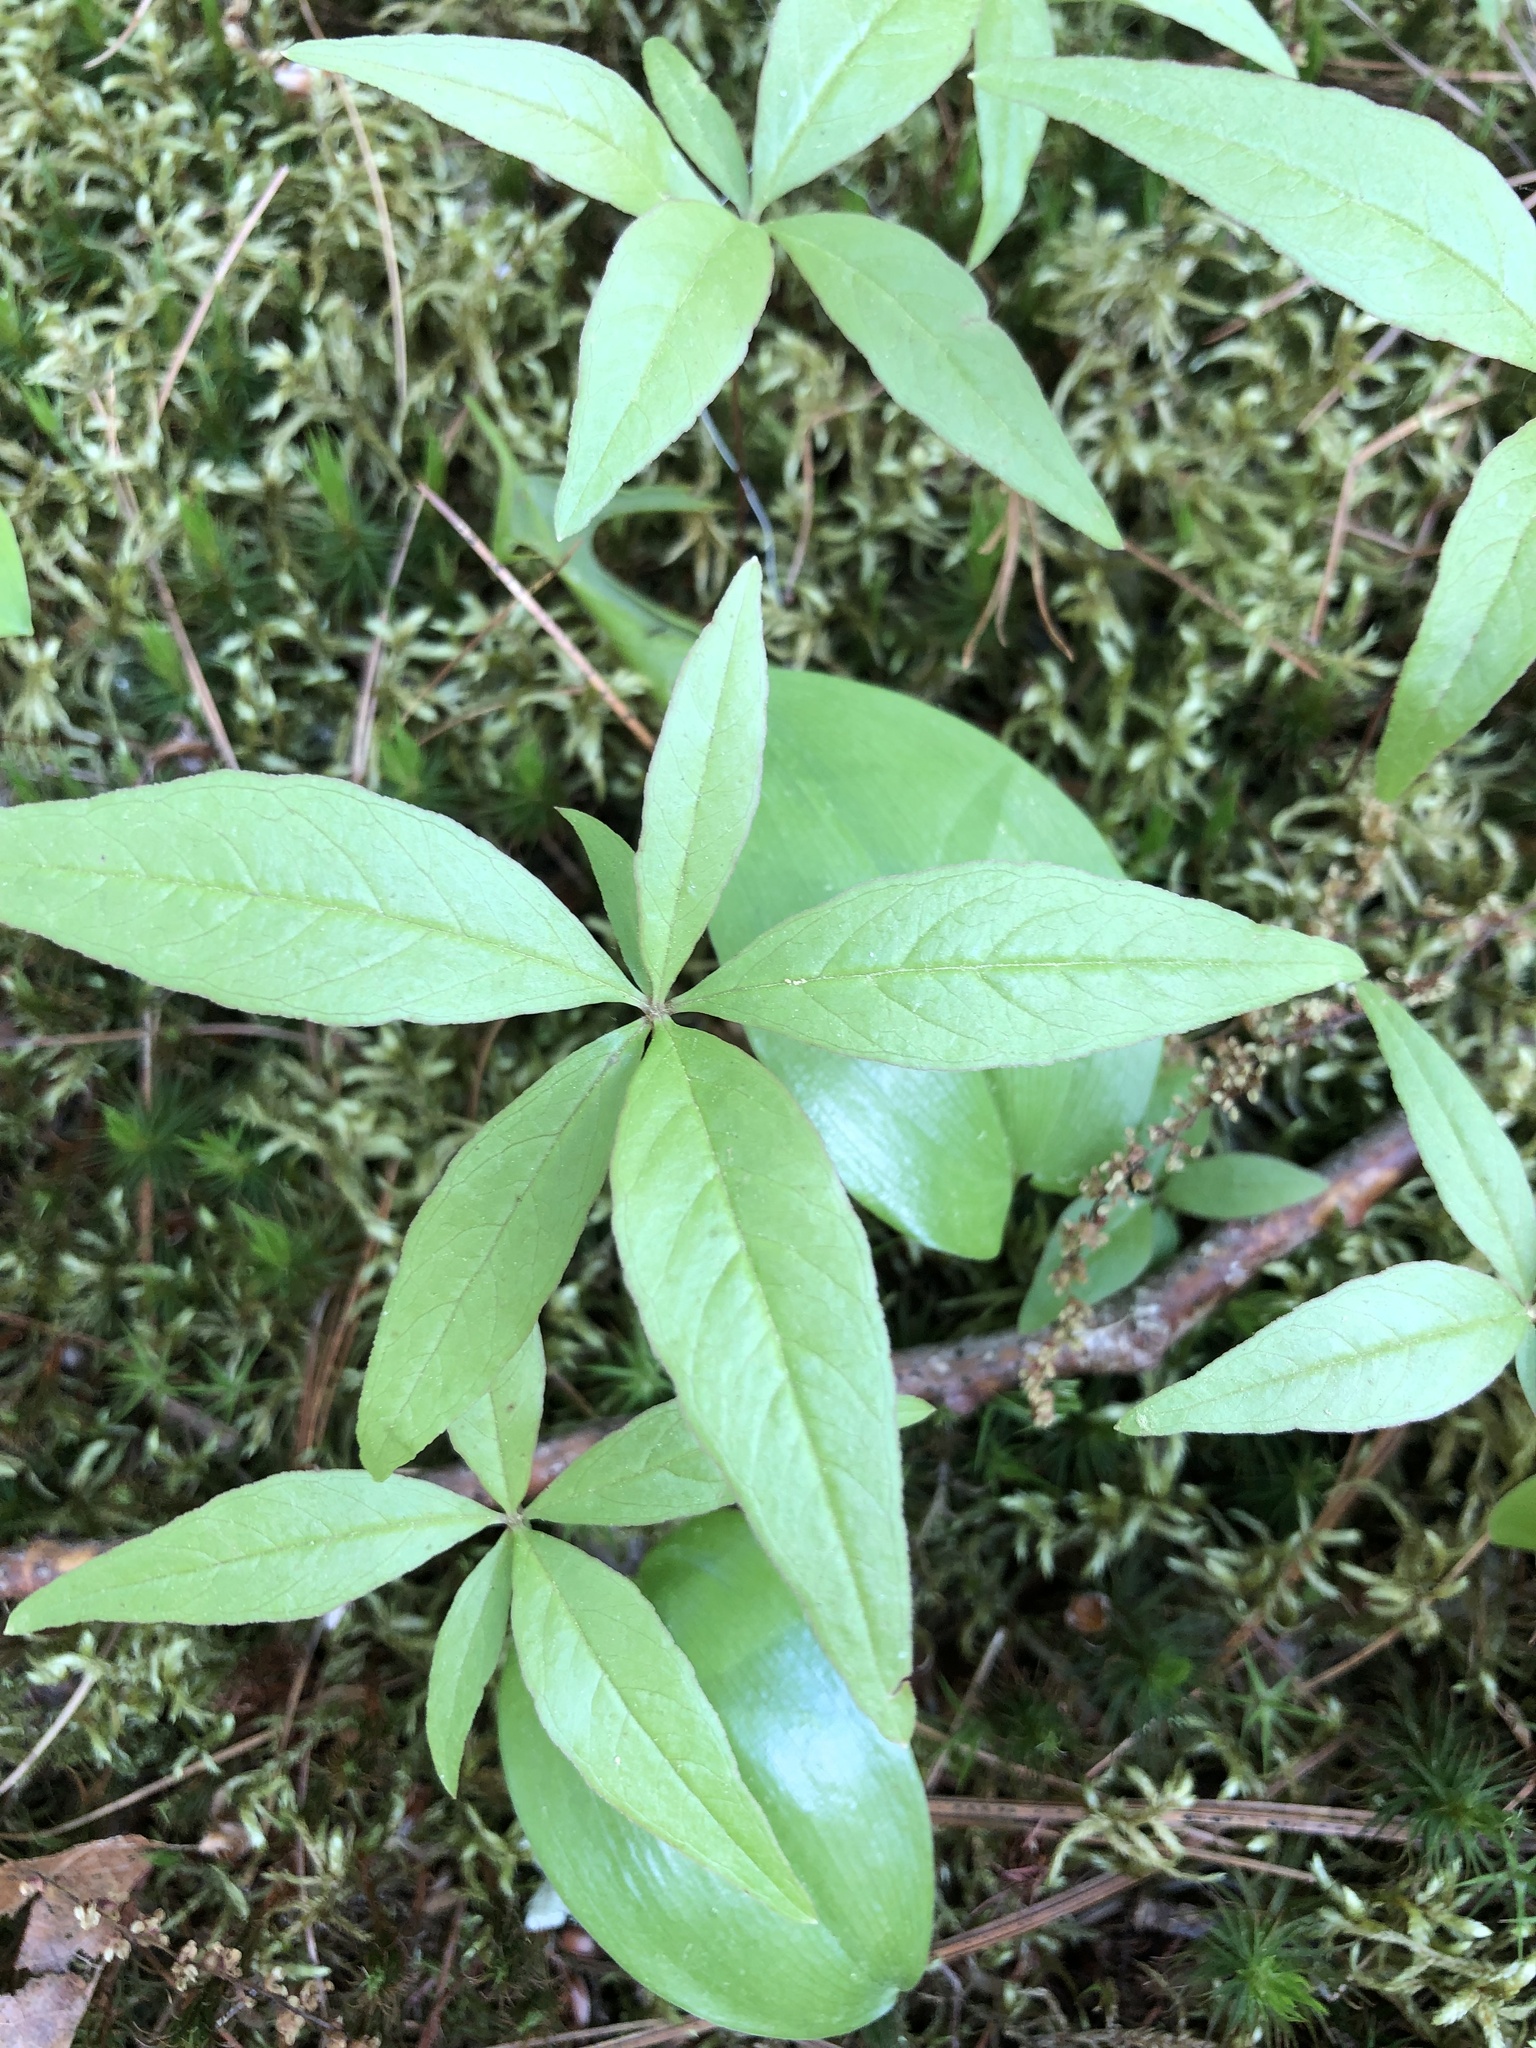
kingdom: Plantae
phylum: Tracheophyta
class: Magnoliopsida
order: Ericales
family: Primulaceae
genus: Lysimachia
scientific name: Lysimachia borealis
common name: American starflower
